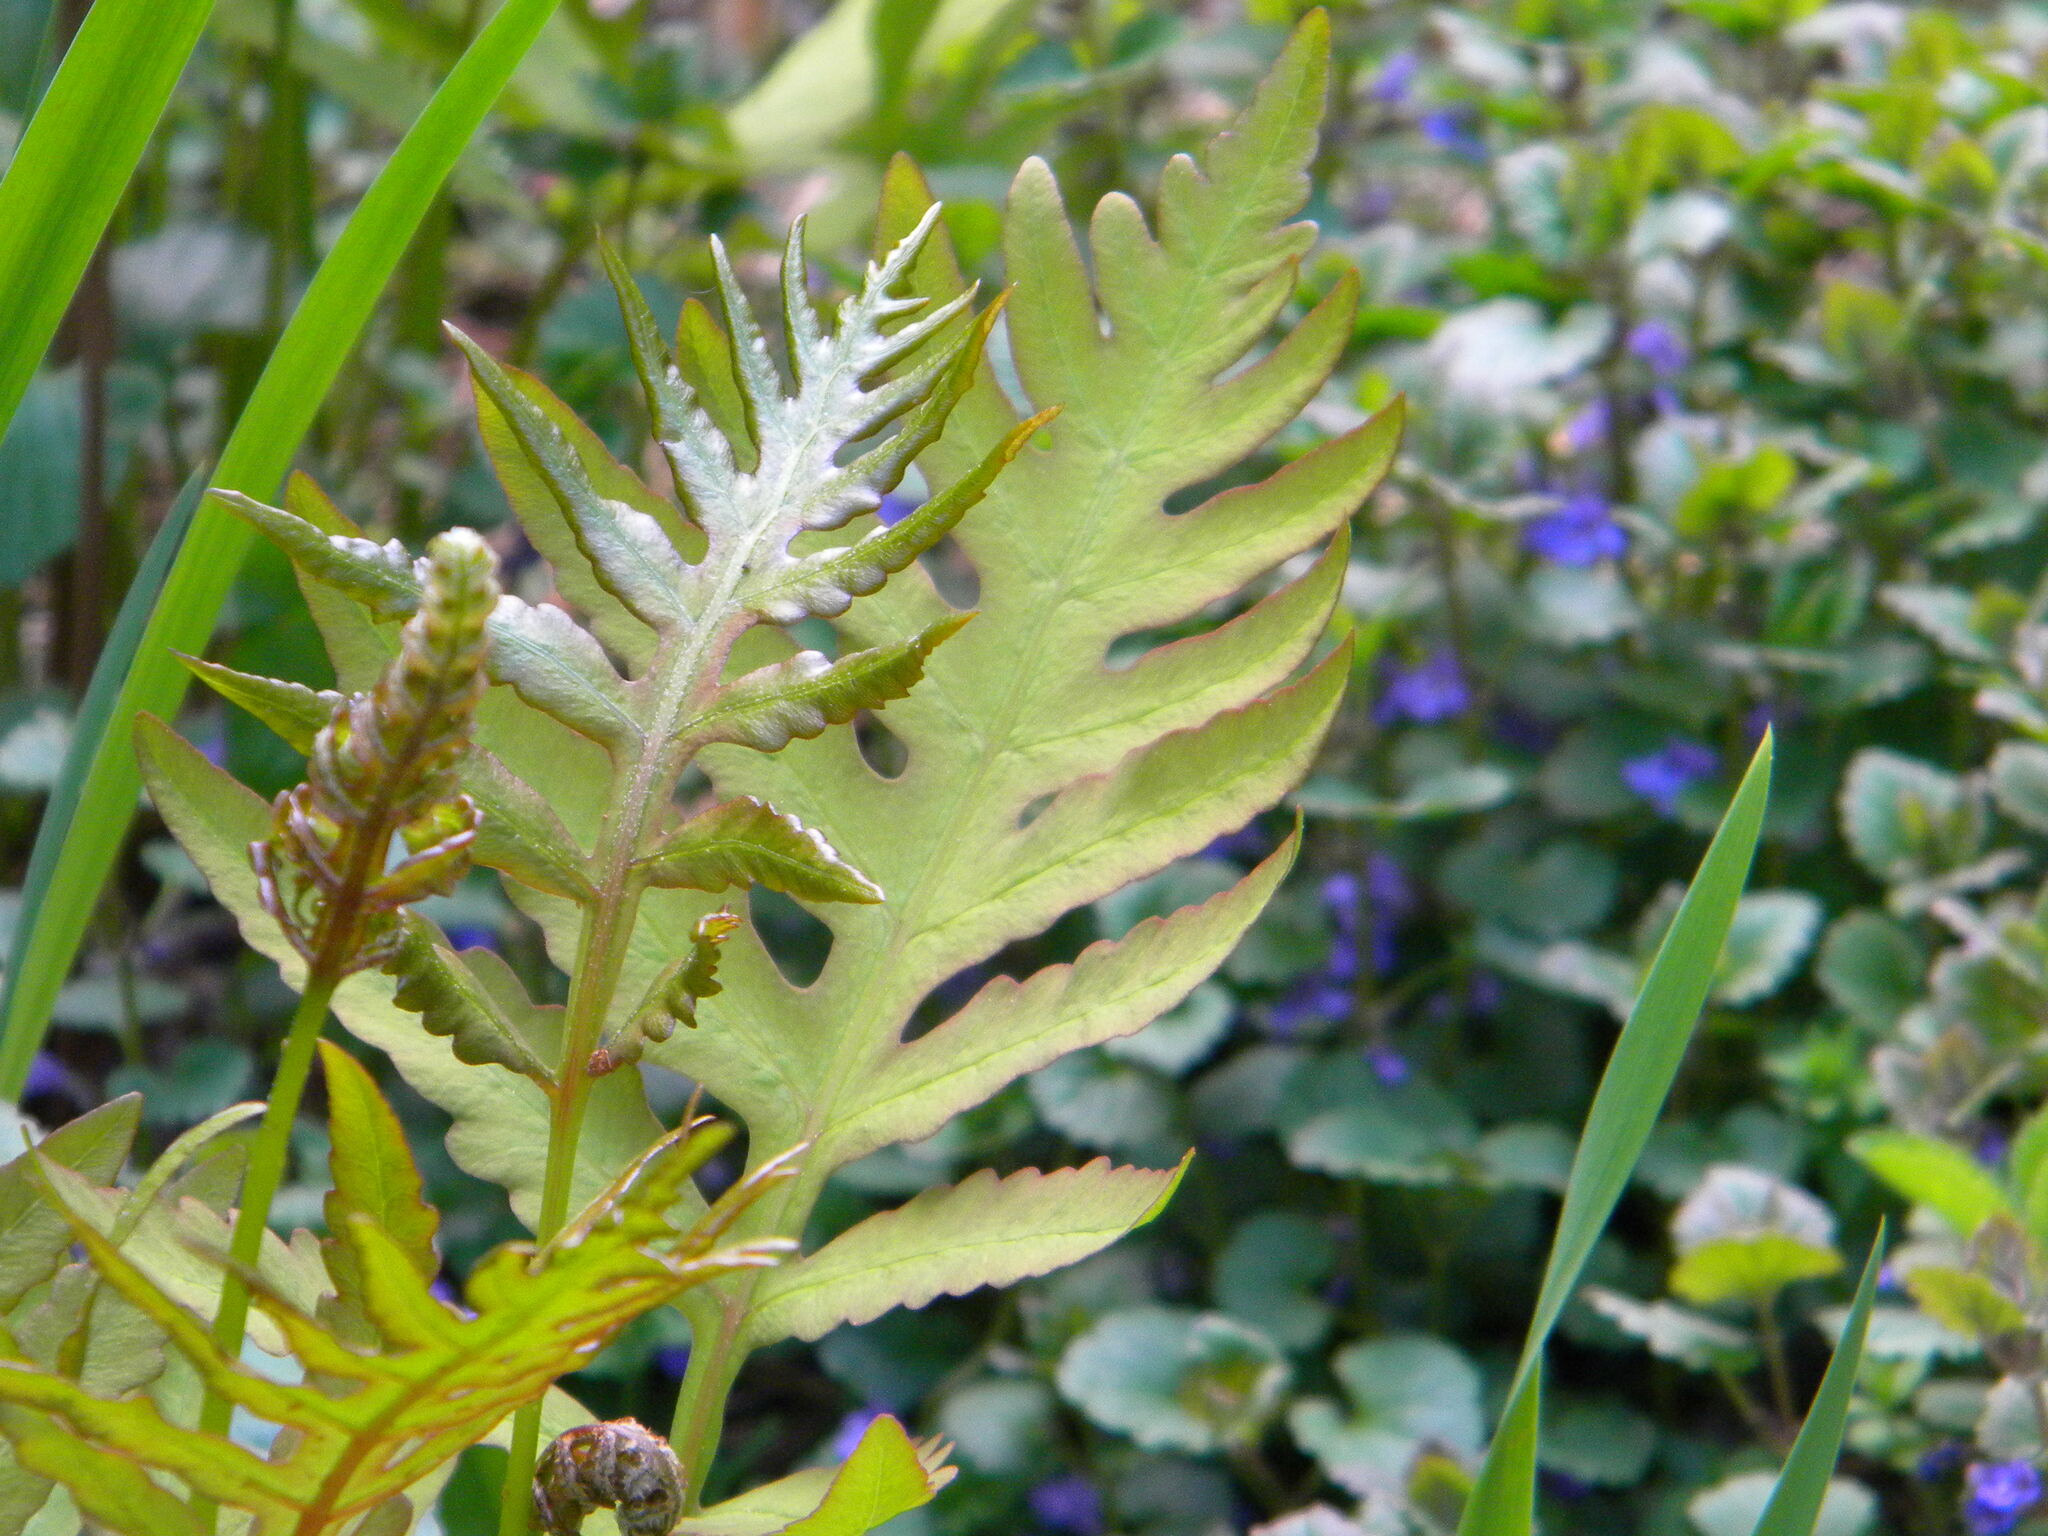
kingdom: Plantae
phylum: Tracheophyta
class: Polypodiopsida
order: Polypodiales
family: Onocleaceae
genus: Onoclea
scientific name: Onoclea sensibilis
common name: Sensitive fern
